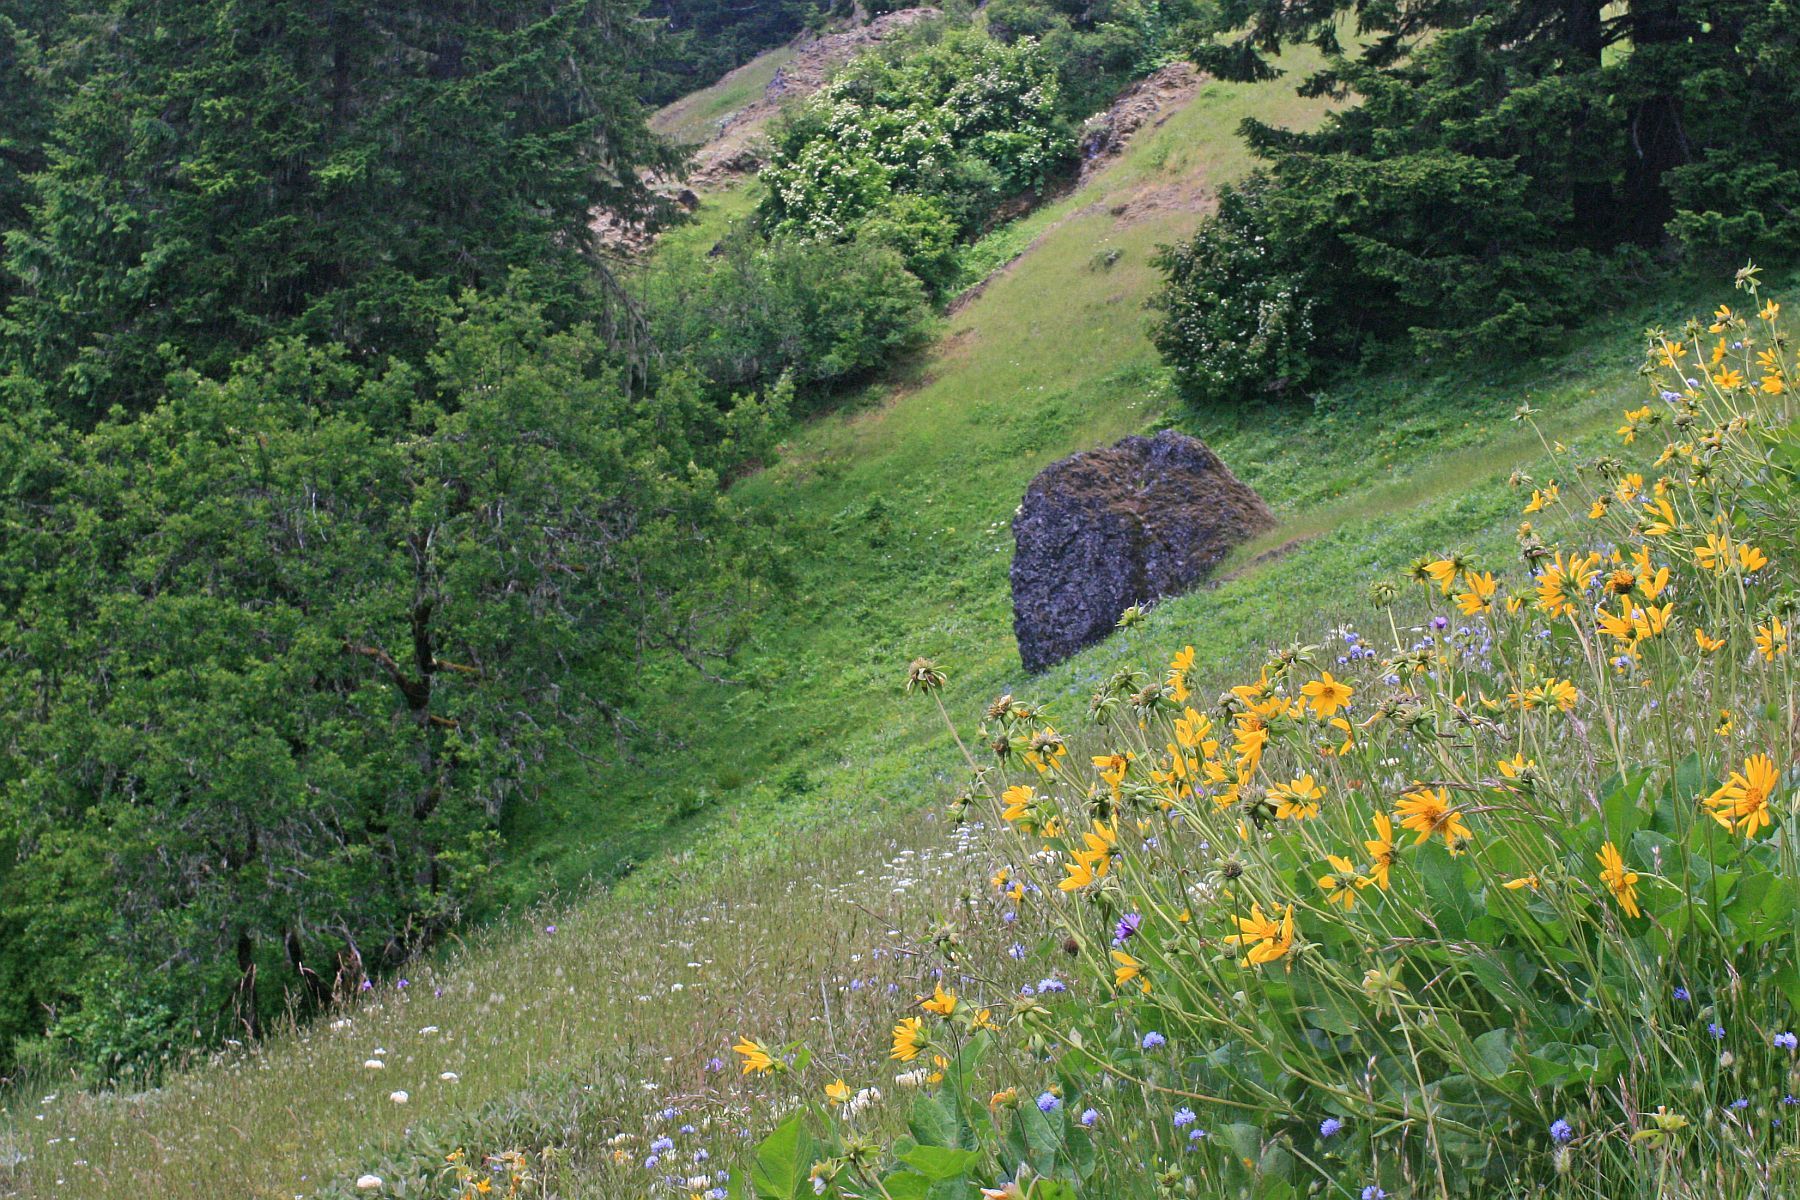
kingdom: Plantae
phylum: Tracheophyta
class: Magnoliopsida
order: Fagales
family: Fagaceae
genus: Quercus
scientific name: Quercus garryana
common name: Garry oak
